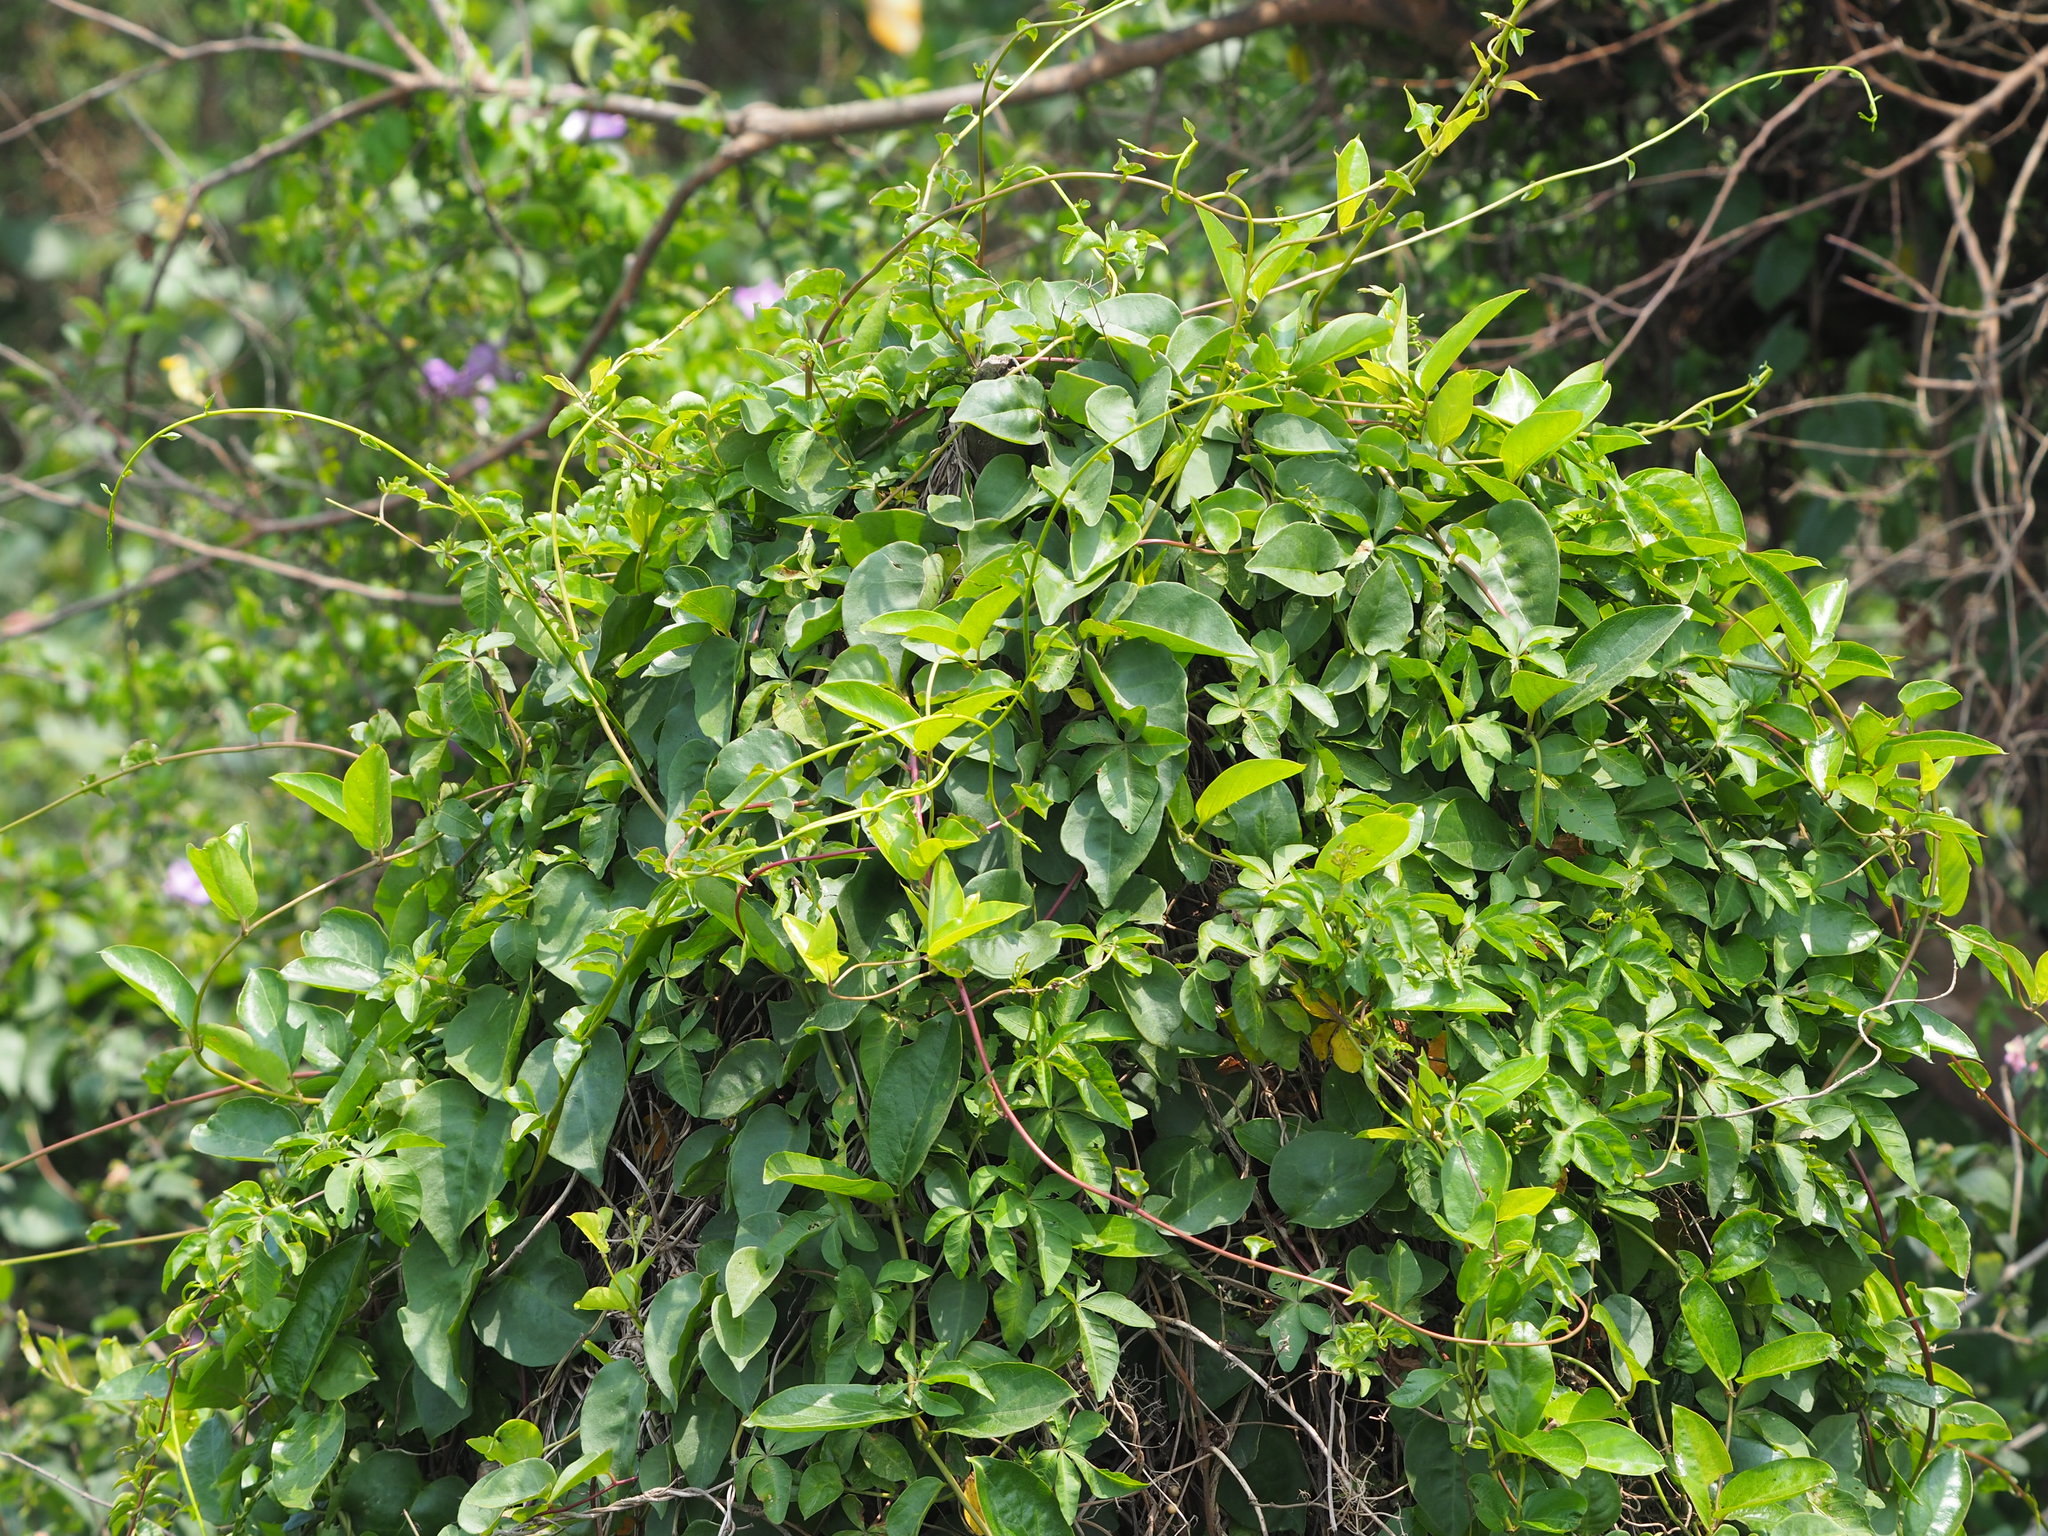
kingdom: Plantae
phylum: Tracheophyta
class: Magnoliopsida
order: Caryophyllales
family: Basellaceae
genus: Anredera
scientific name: Anredera cordifolia
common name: Heartleaf madeiravine
